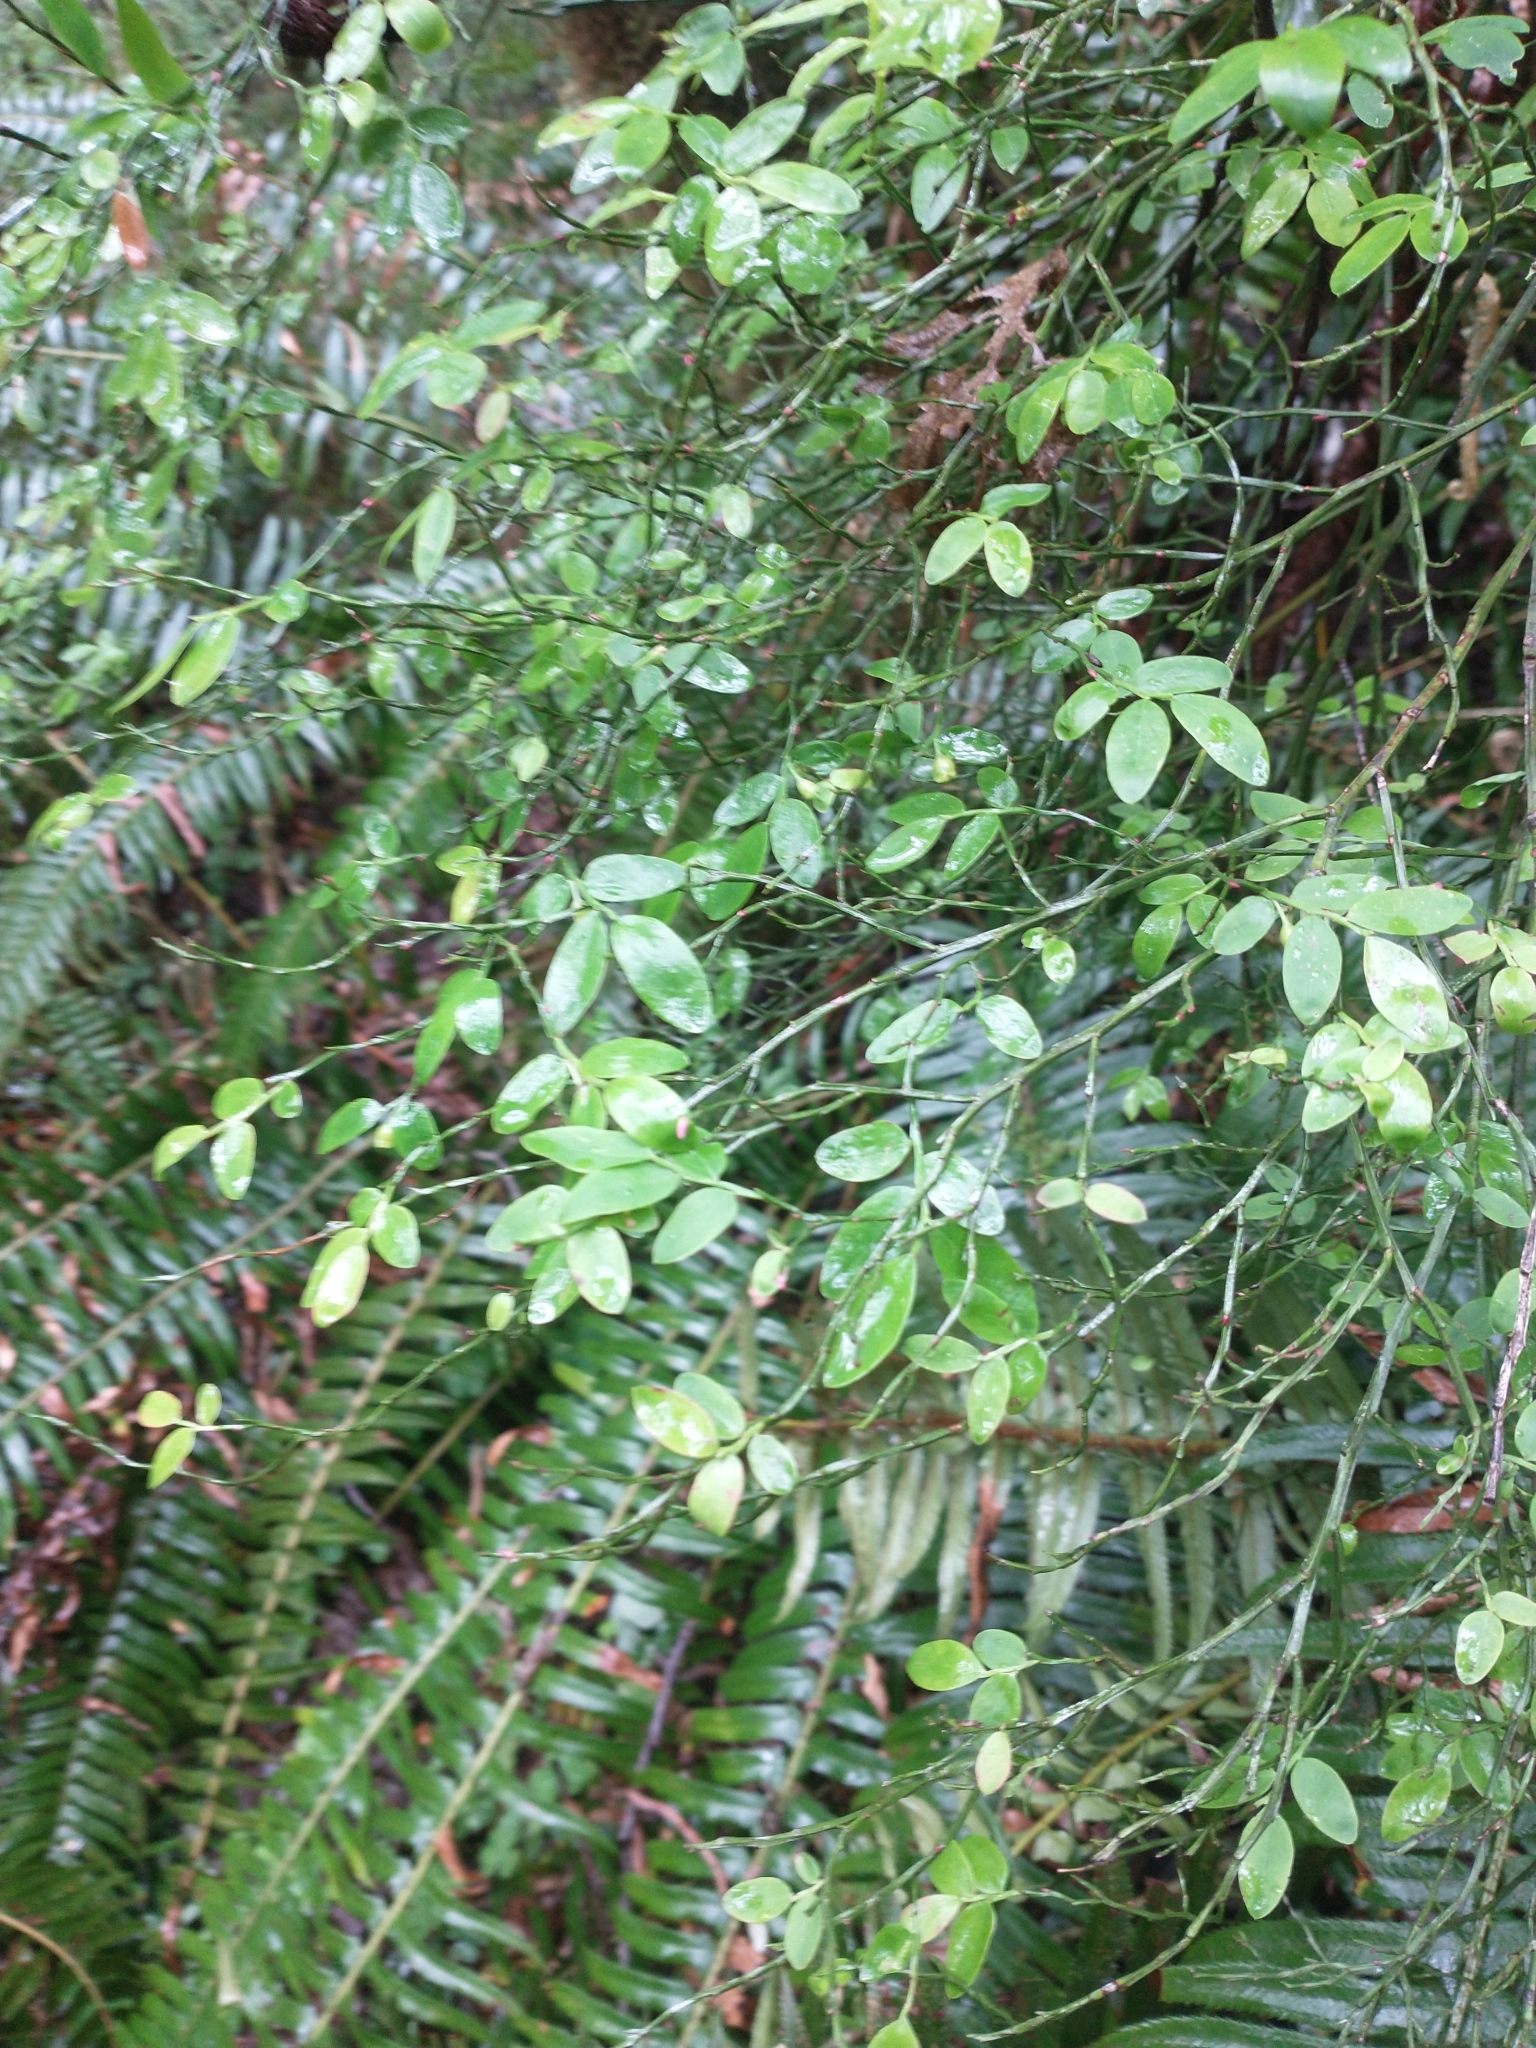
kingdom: Plantae
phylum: Tracheophyta
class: Magnoliopsida
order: Ericales
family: Ericaceae
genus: Vaccinium
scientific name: Vaccinium parvifolium
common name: Red-huckleberry
